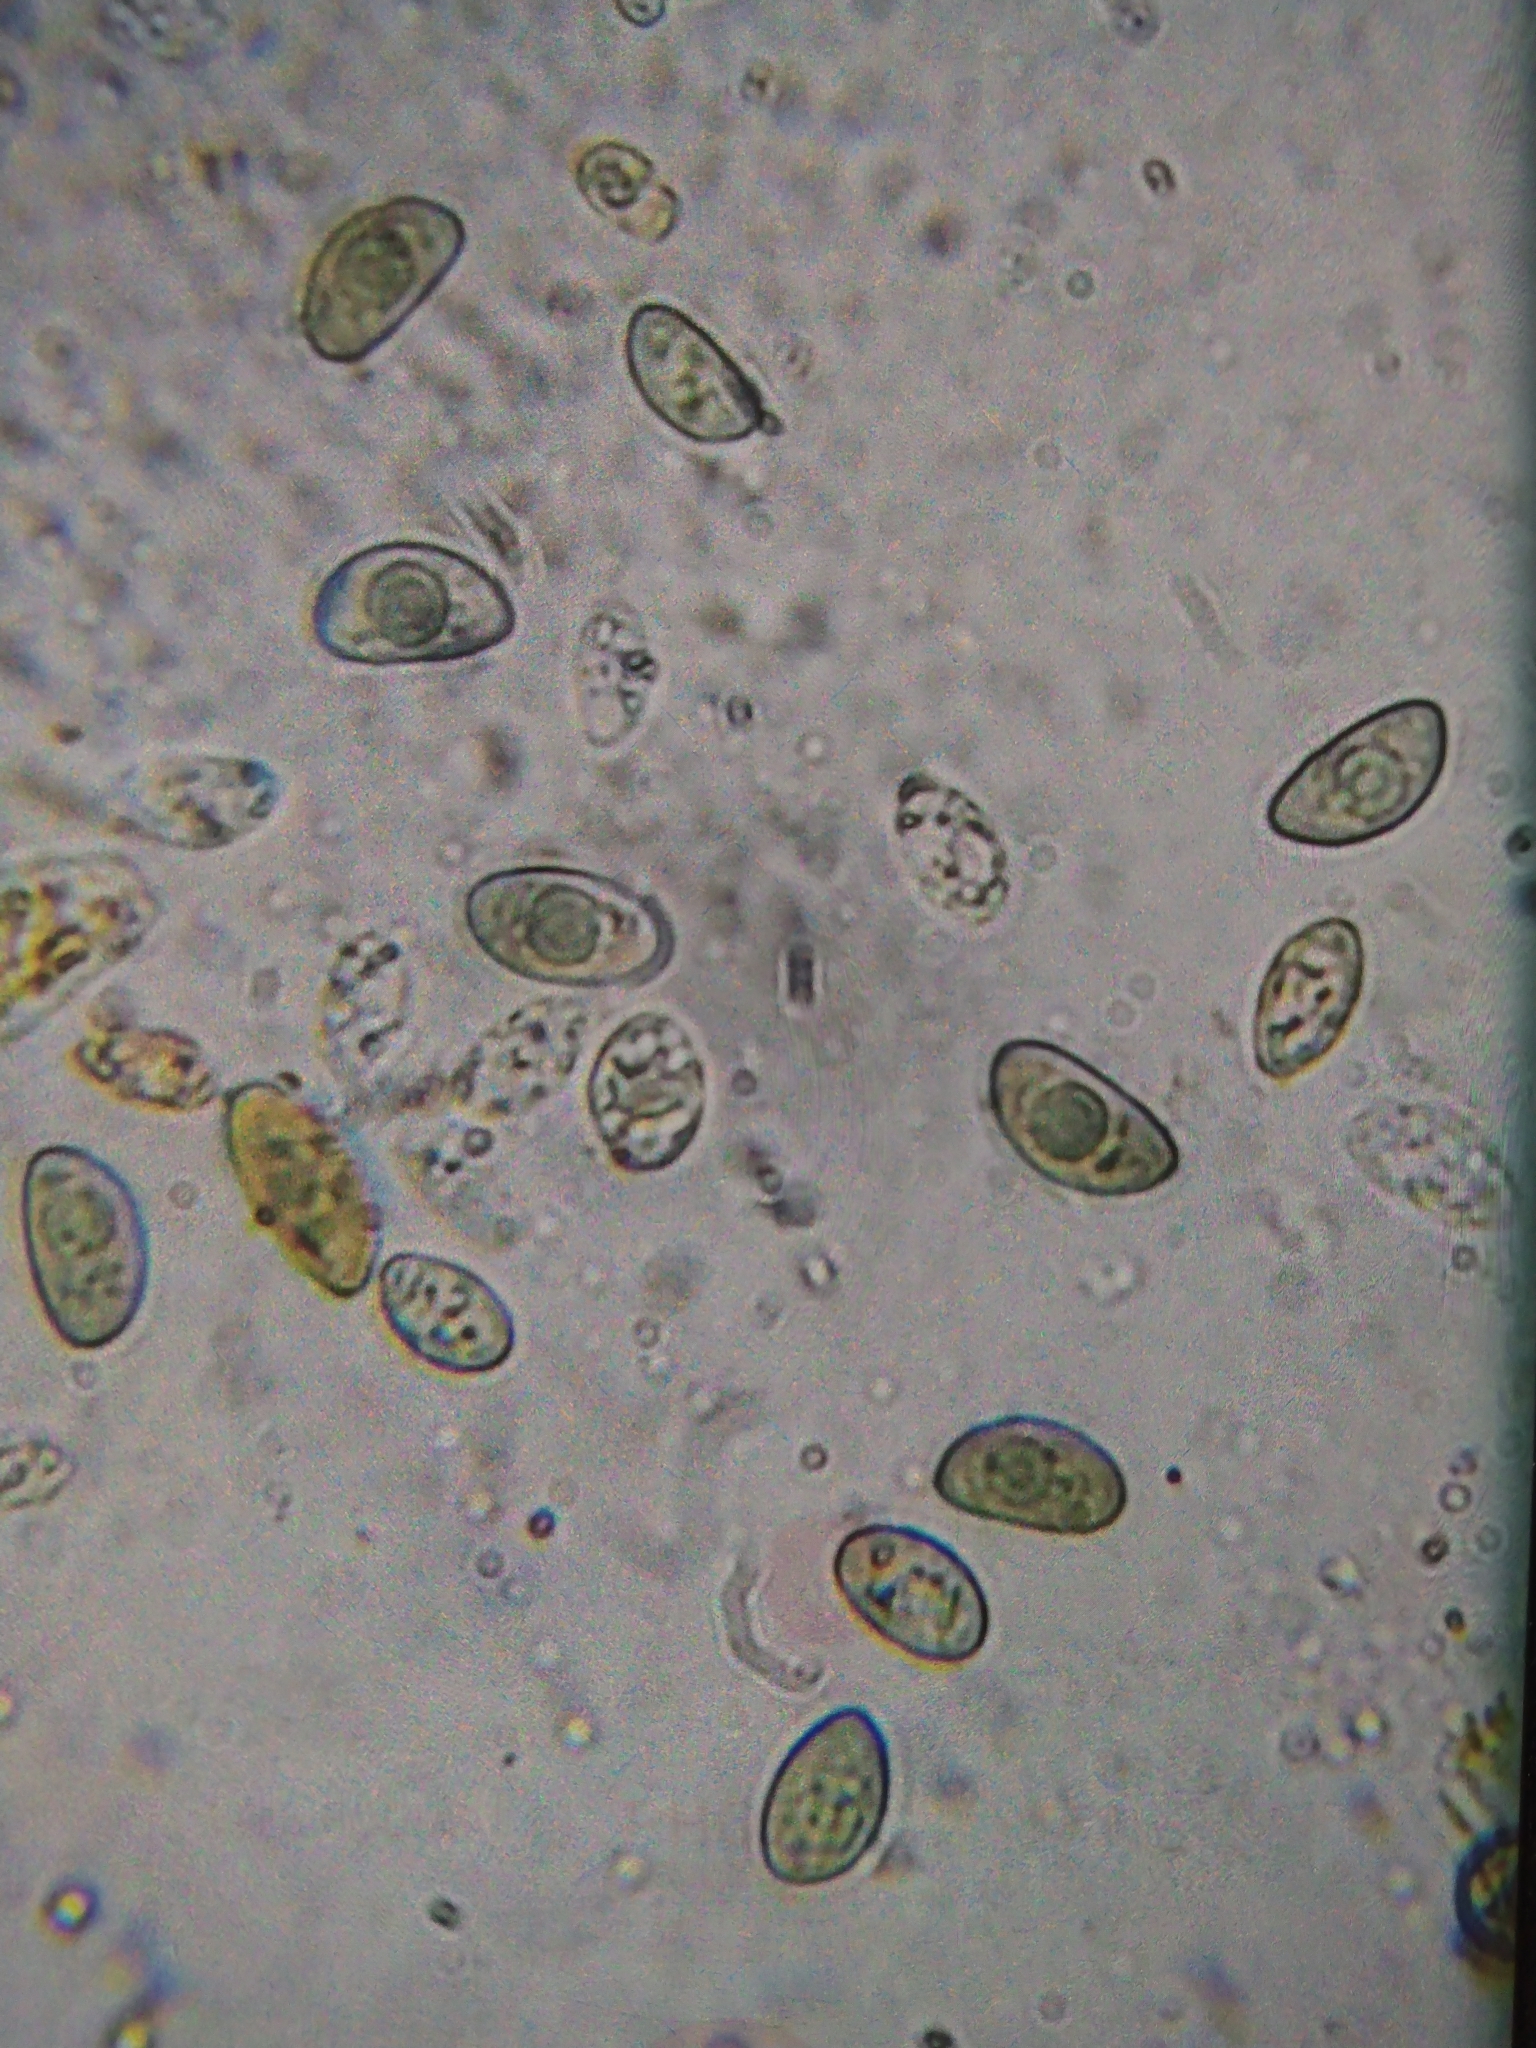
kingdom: Fungi
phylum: Ascomycota
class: Leotiomycetes
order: Phacidiales
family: Phacidiaceae
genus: Bulgaria
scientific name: Bulgaria inquinans
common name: Black bulgar
